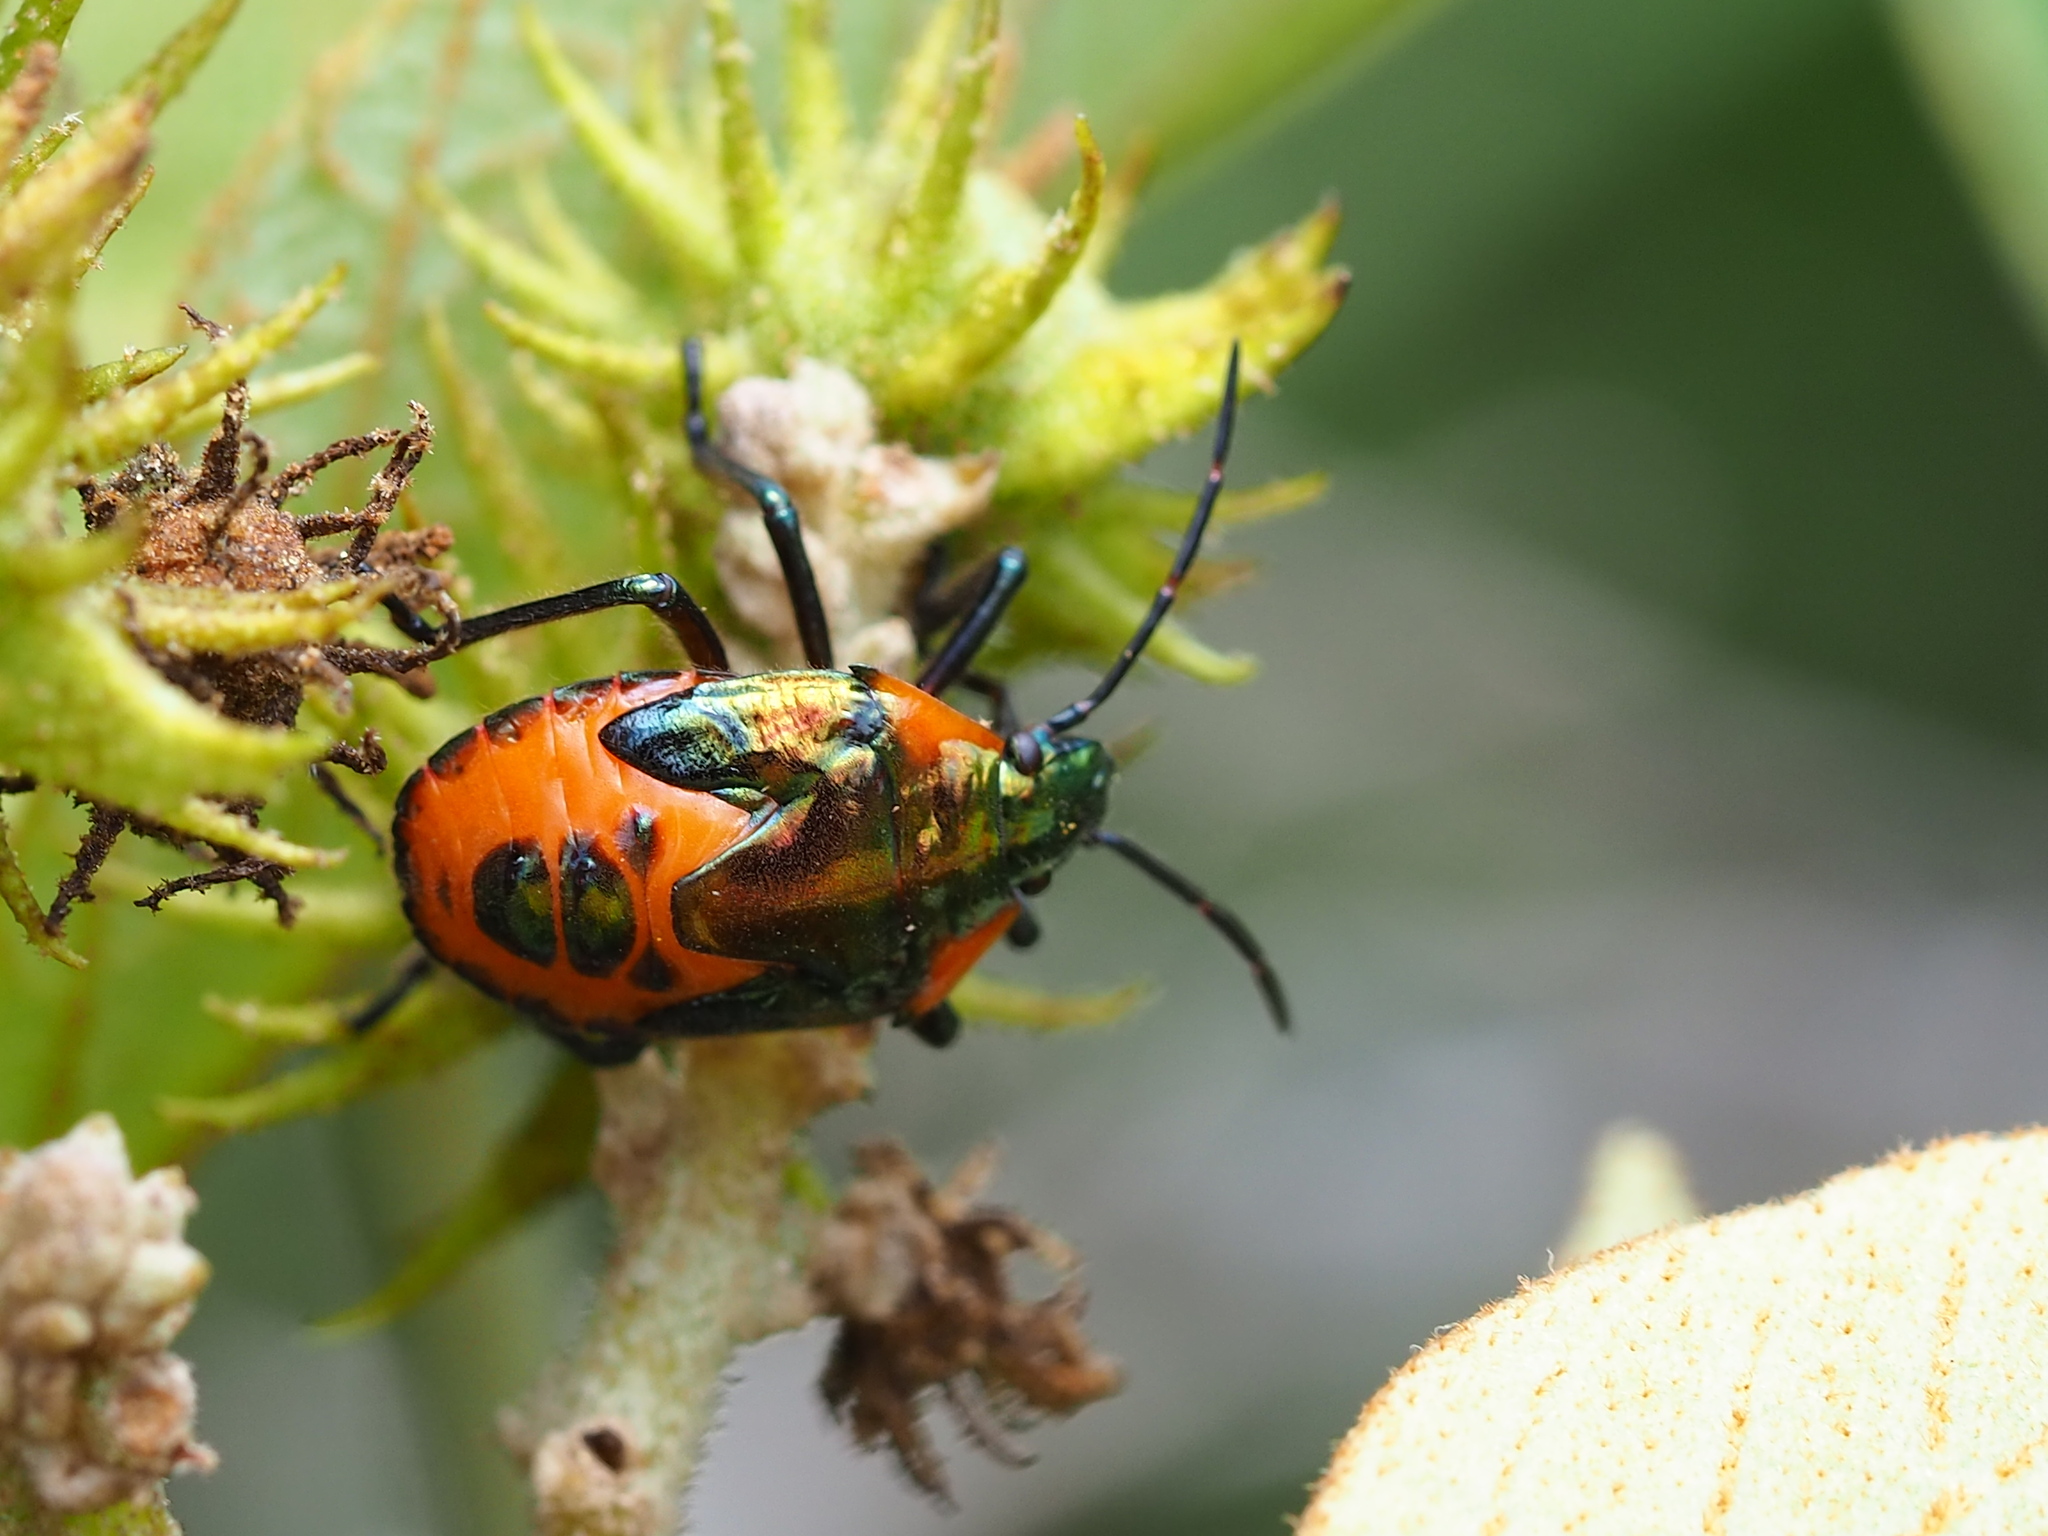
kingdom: Animalia
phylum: Arthropoda
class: Insecta
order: Hemiptera
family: Scutelleridae
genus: Cantao
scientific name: Cantao ocellatus
